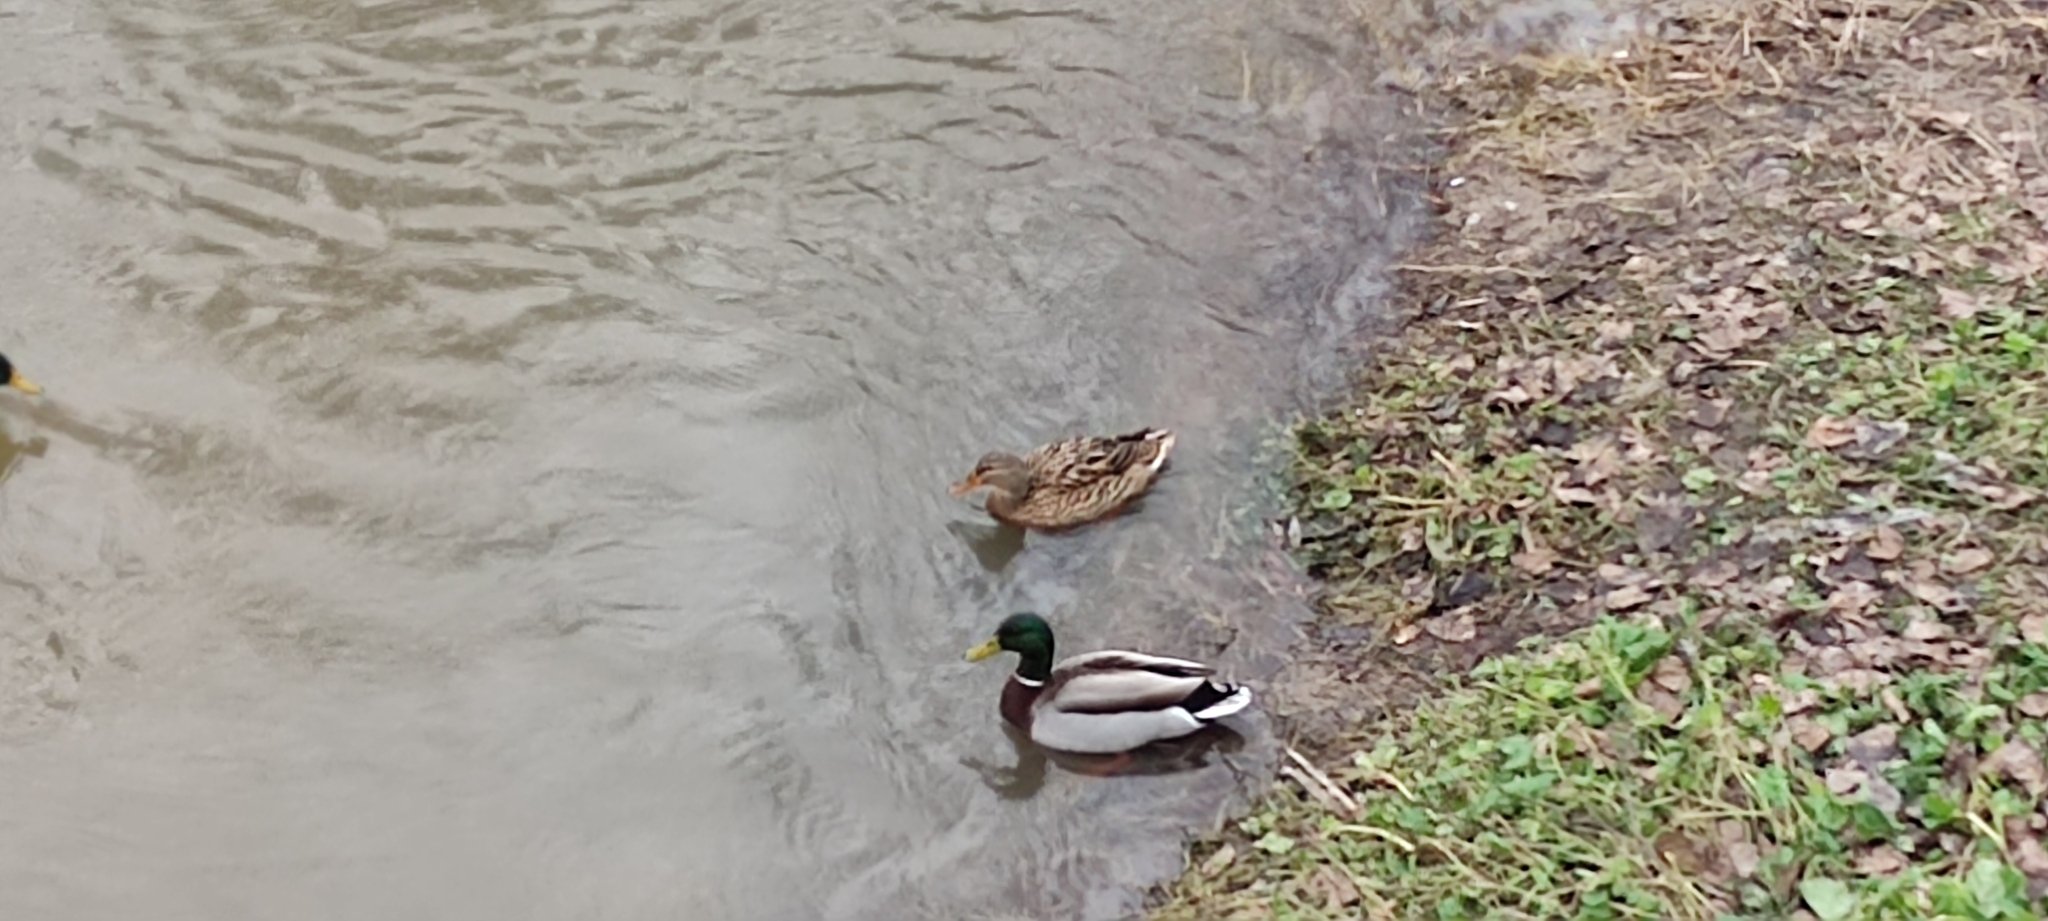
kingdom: Animalia
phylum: Chordata
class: Aves
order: Anseriformes
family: Anatidae
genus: Anas
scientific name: Anas platyrhynchos
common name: Mallard
